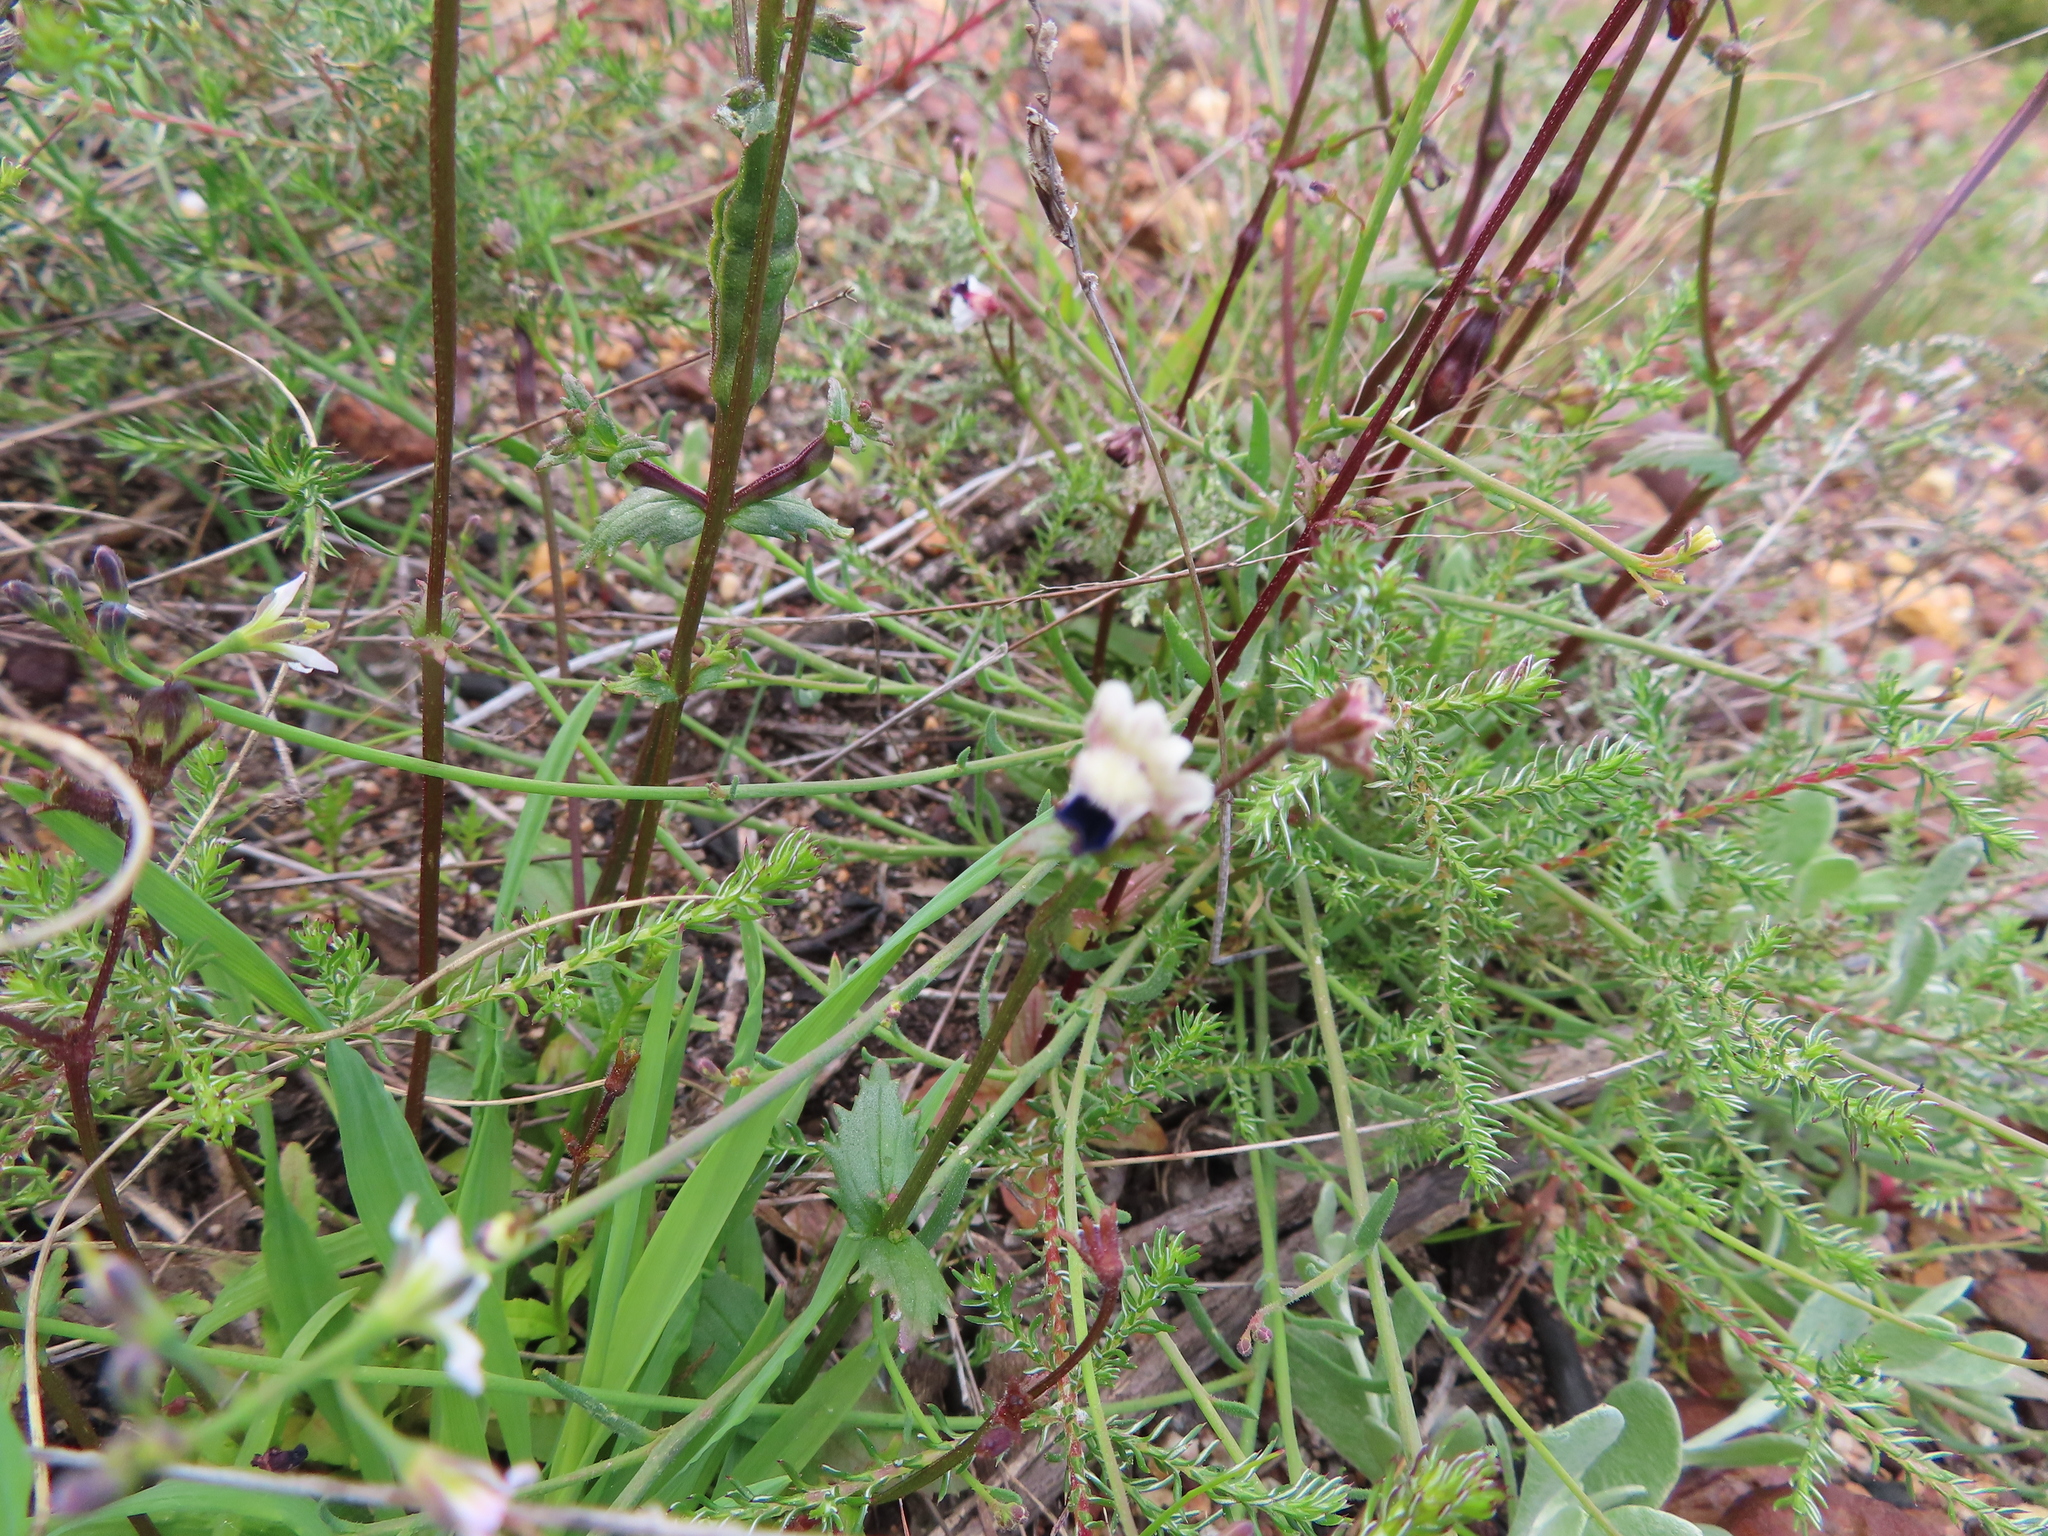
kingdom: Plantae
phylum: Tracheophyta
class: Magnoliopsida
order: Lamiales
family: Scrophulariaceae
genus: Nemesia
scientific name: Nemesia barbata
